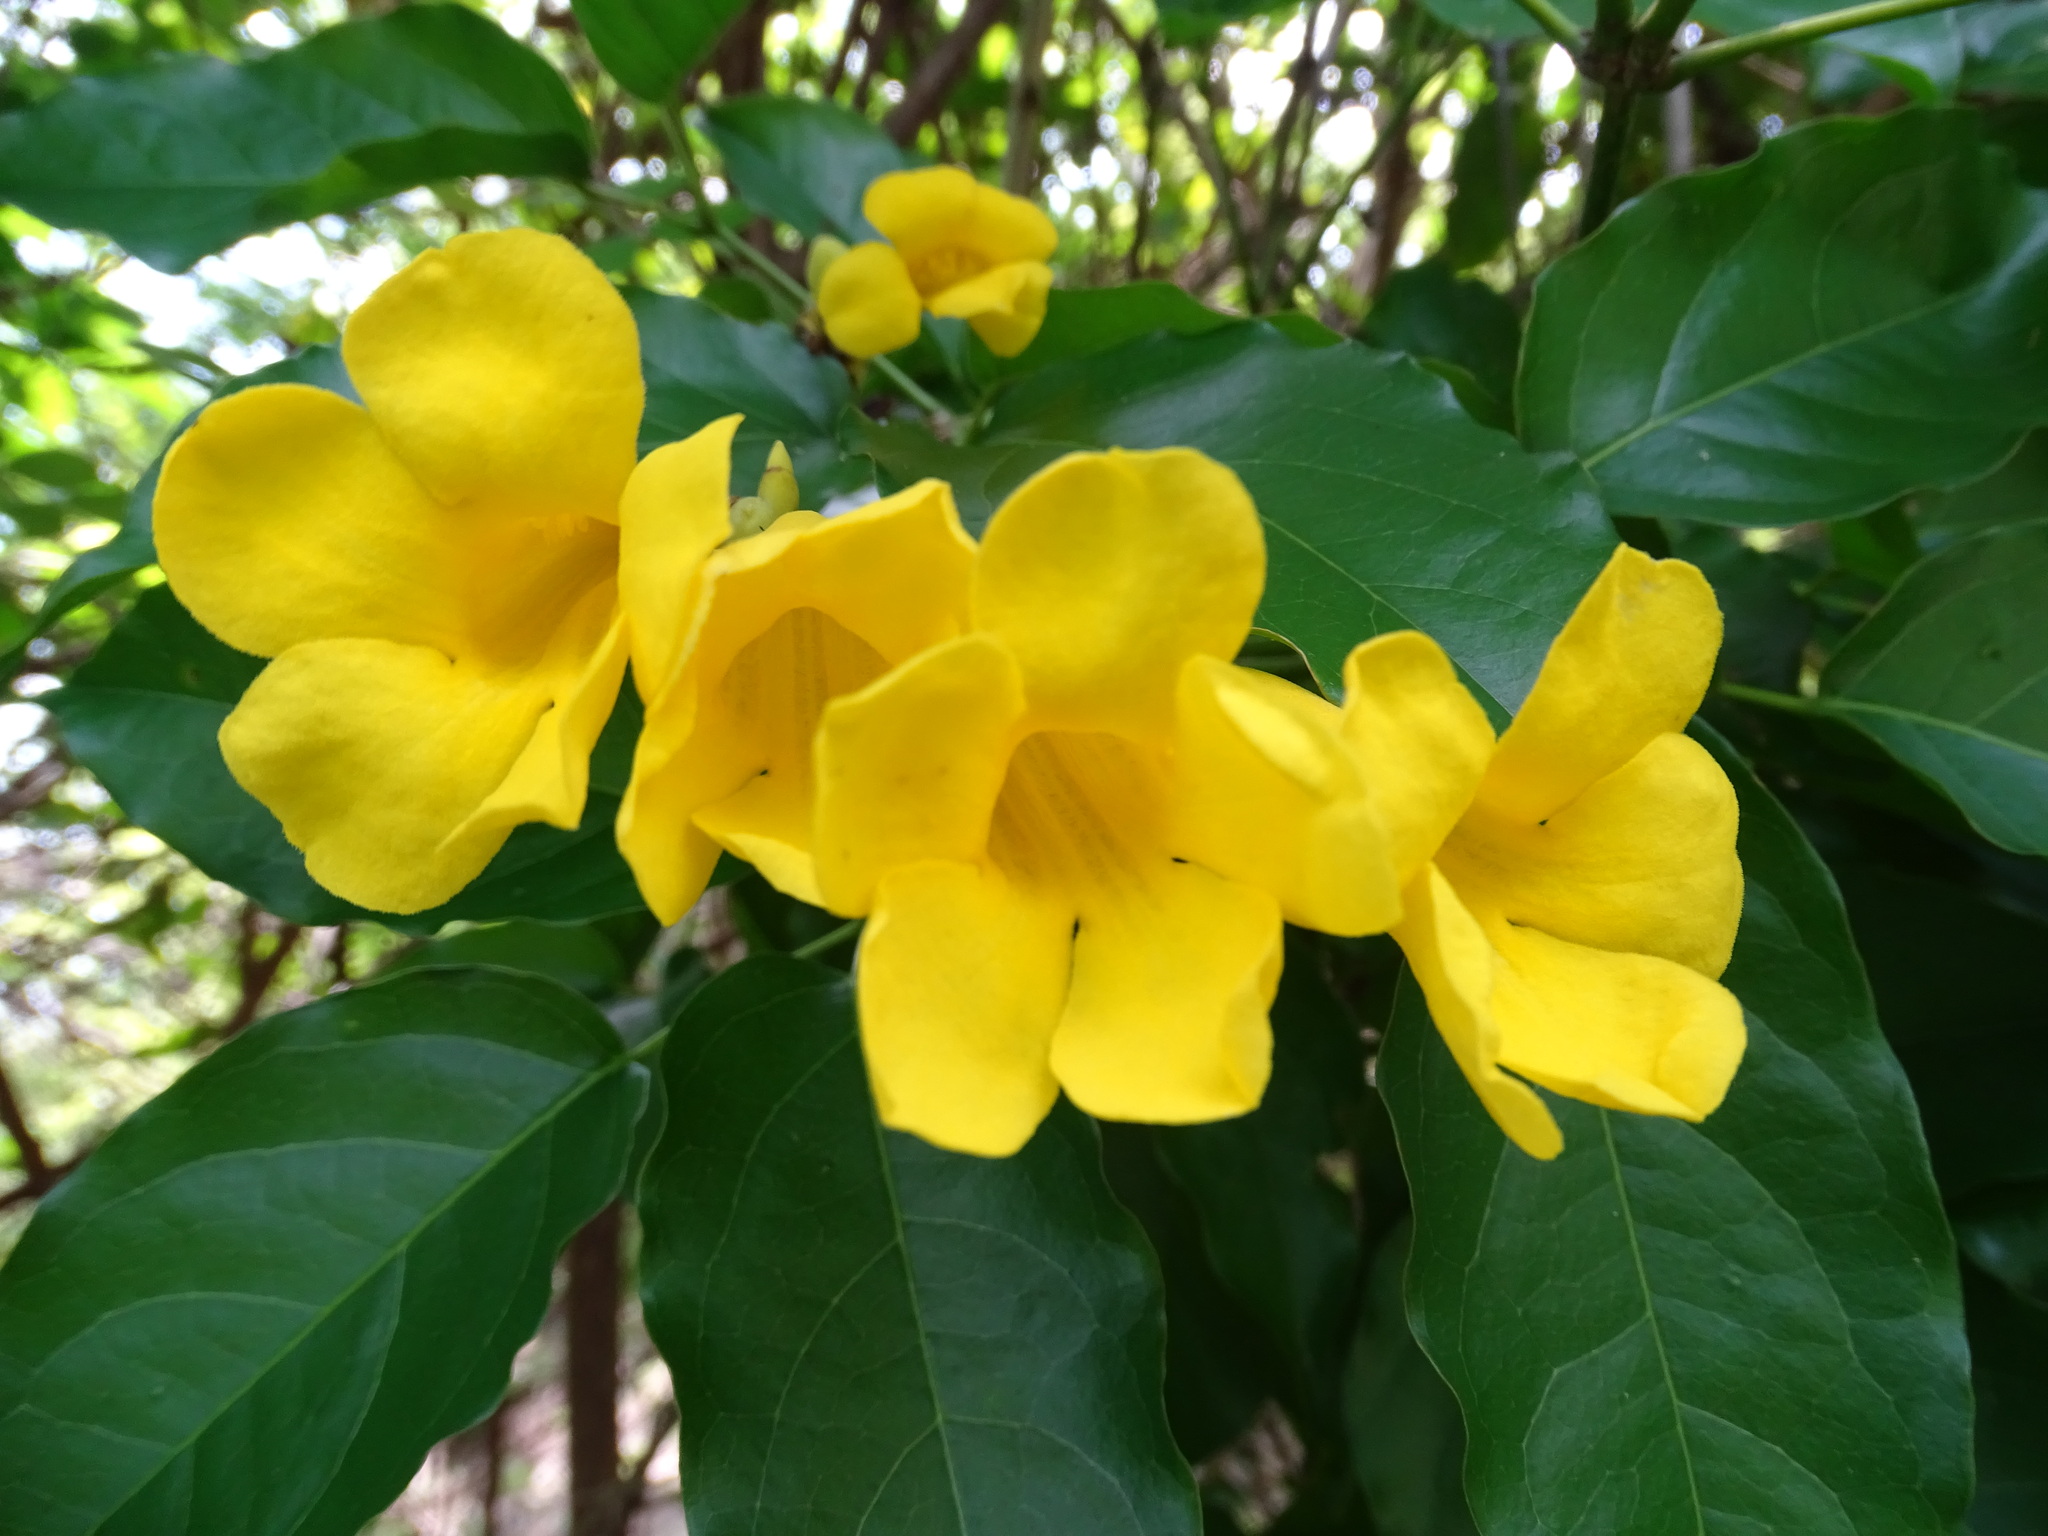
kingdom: Plantae
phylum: Tracheophyta
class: Magnoliopsida
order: Lamiales
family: Bignoniaceae
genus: Adenocalymma
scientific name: Adenocalymma inundatum
